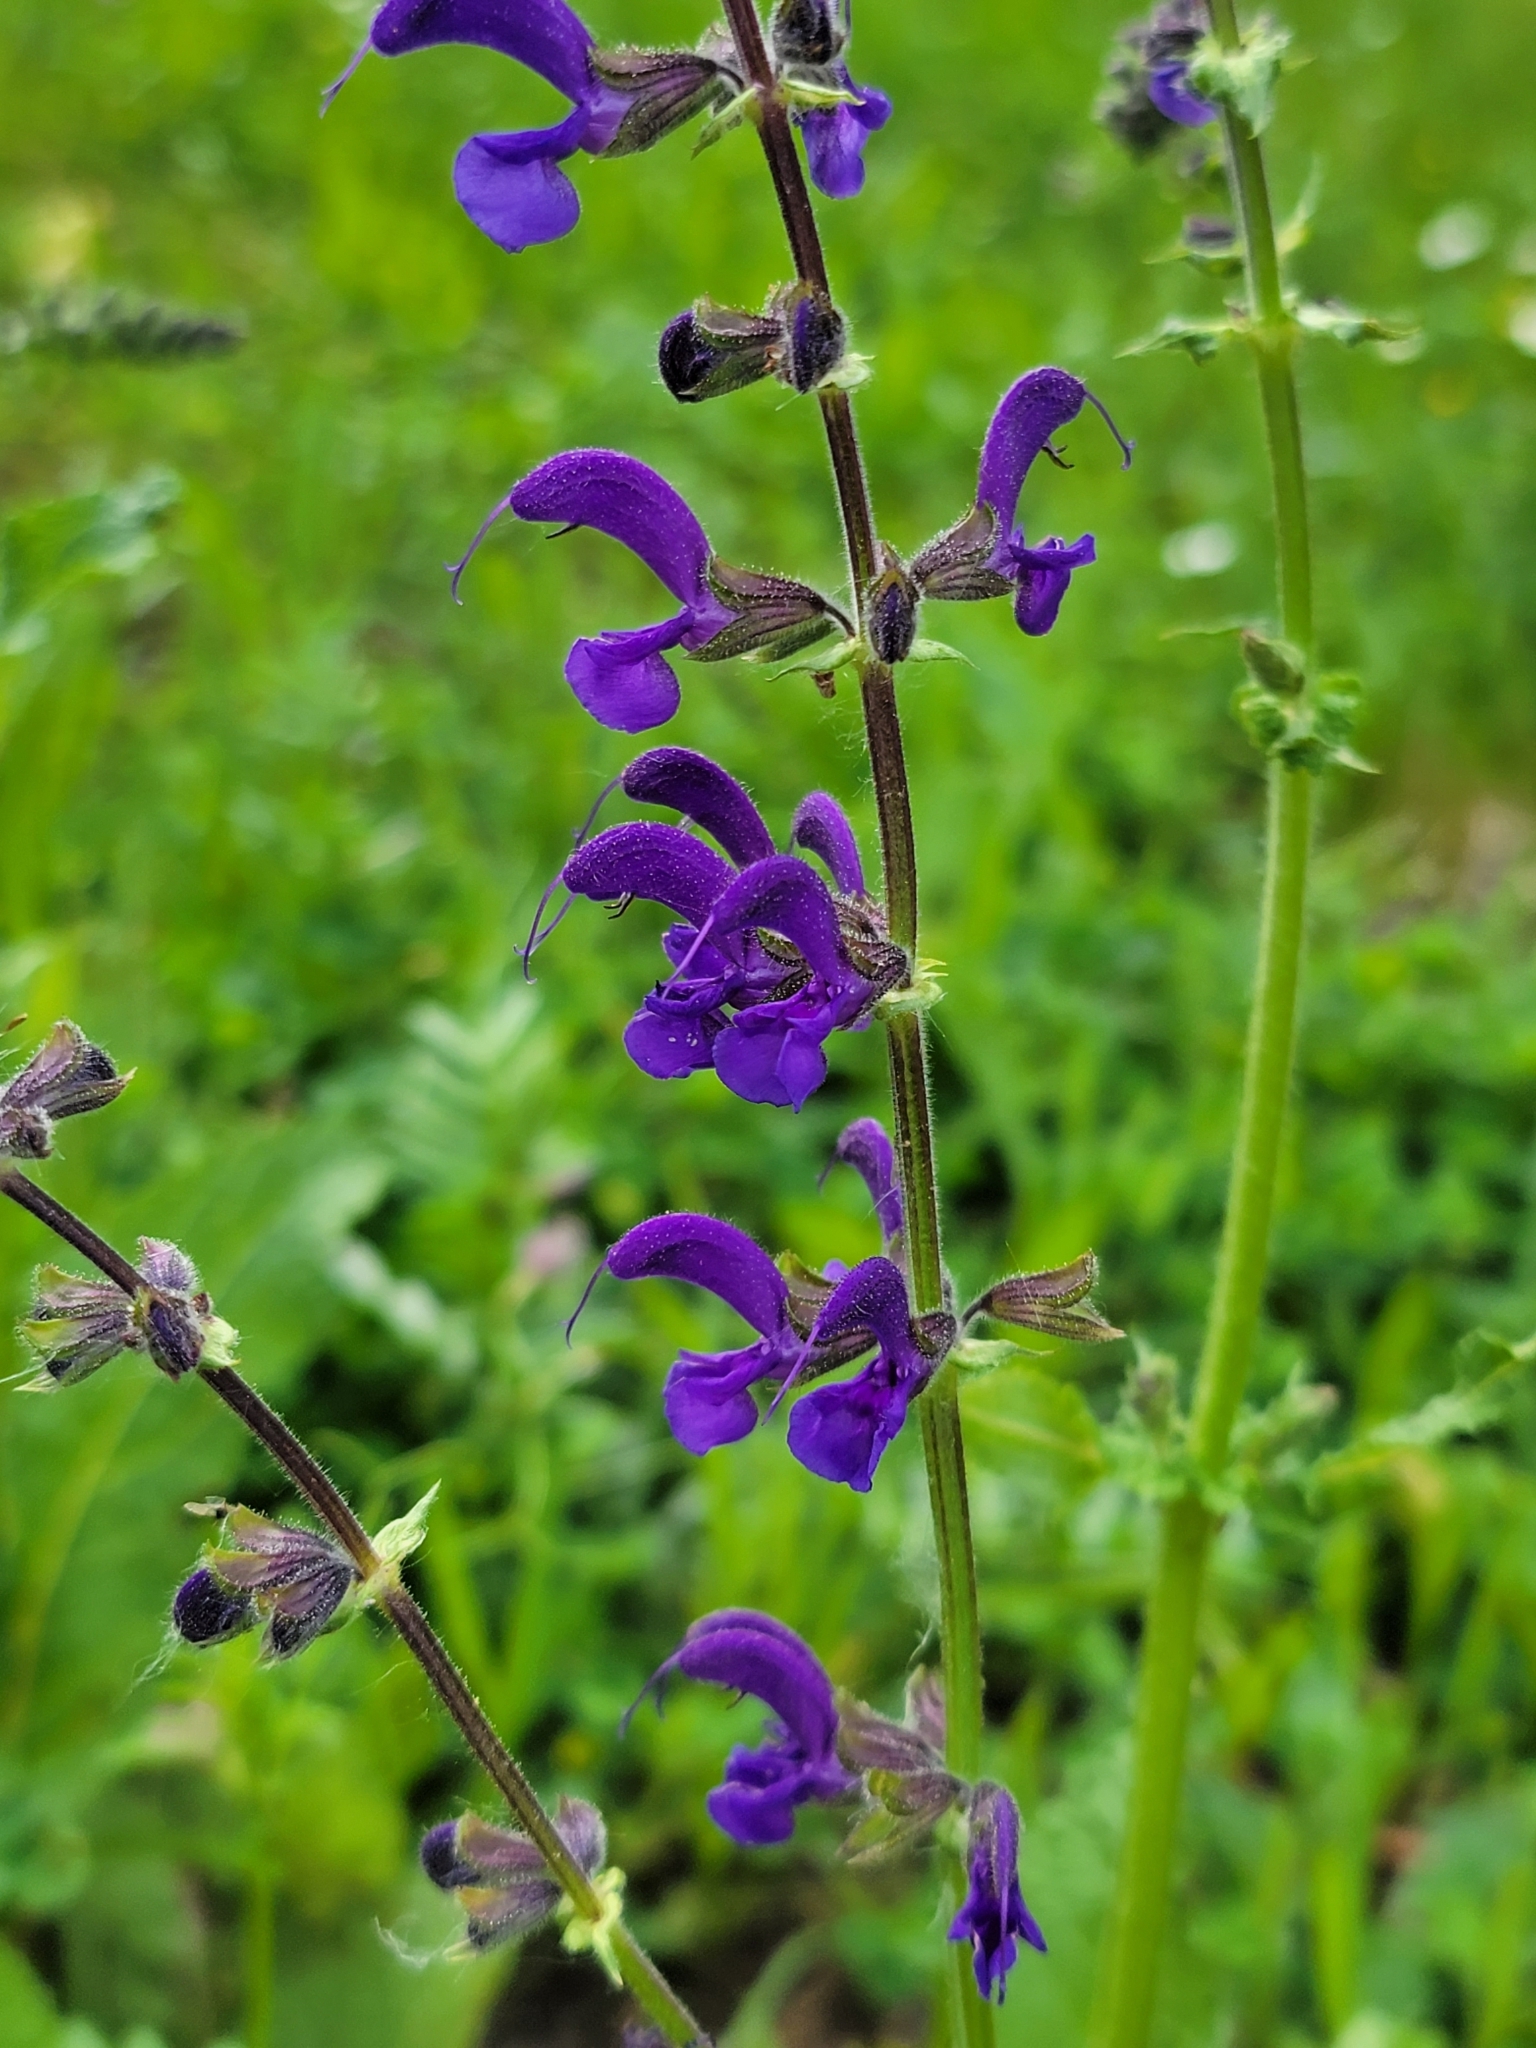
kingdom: Plantae
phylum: Tracheophyta
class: Magnoliopsida
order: Lamiales
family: Lamiaceae
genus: Salvia
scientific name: Salvia pratensis
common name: Meadow sage
